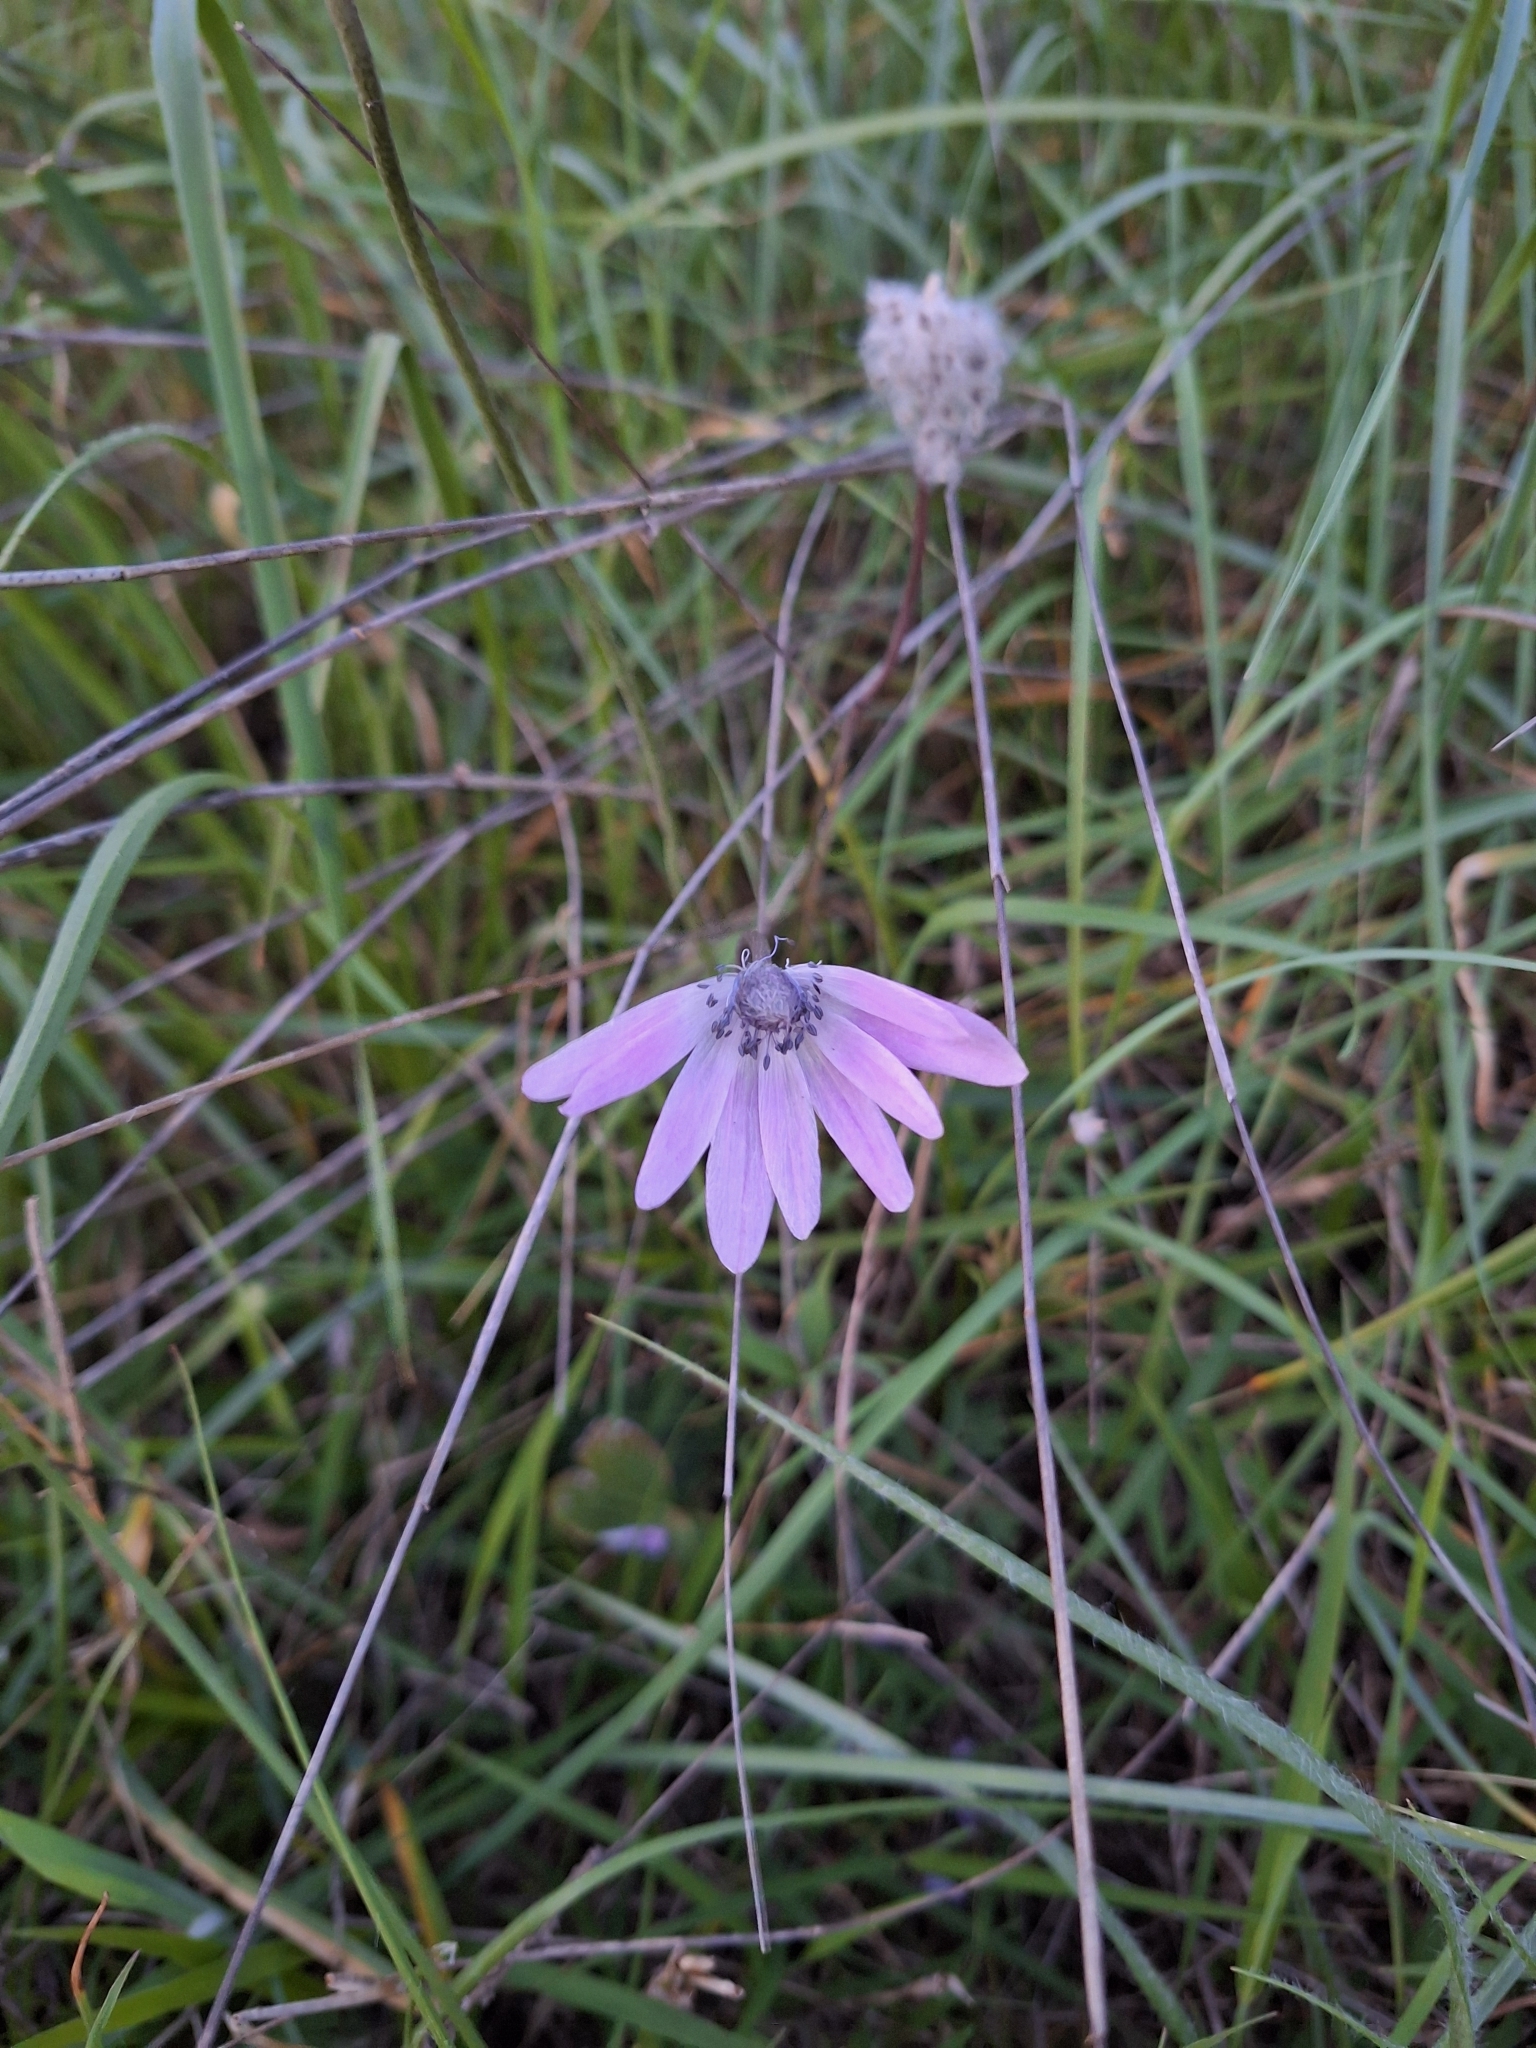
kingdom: Plantae
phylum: Tracheophyta
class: Magnoliopsida
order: Ranunculales
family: Ranunculaceae
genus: Anemone
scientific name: Anemone hortensis
